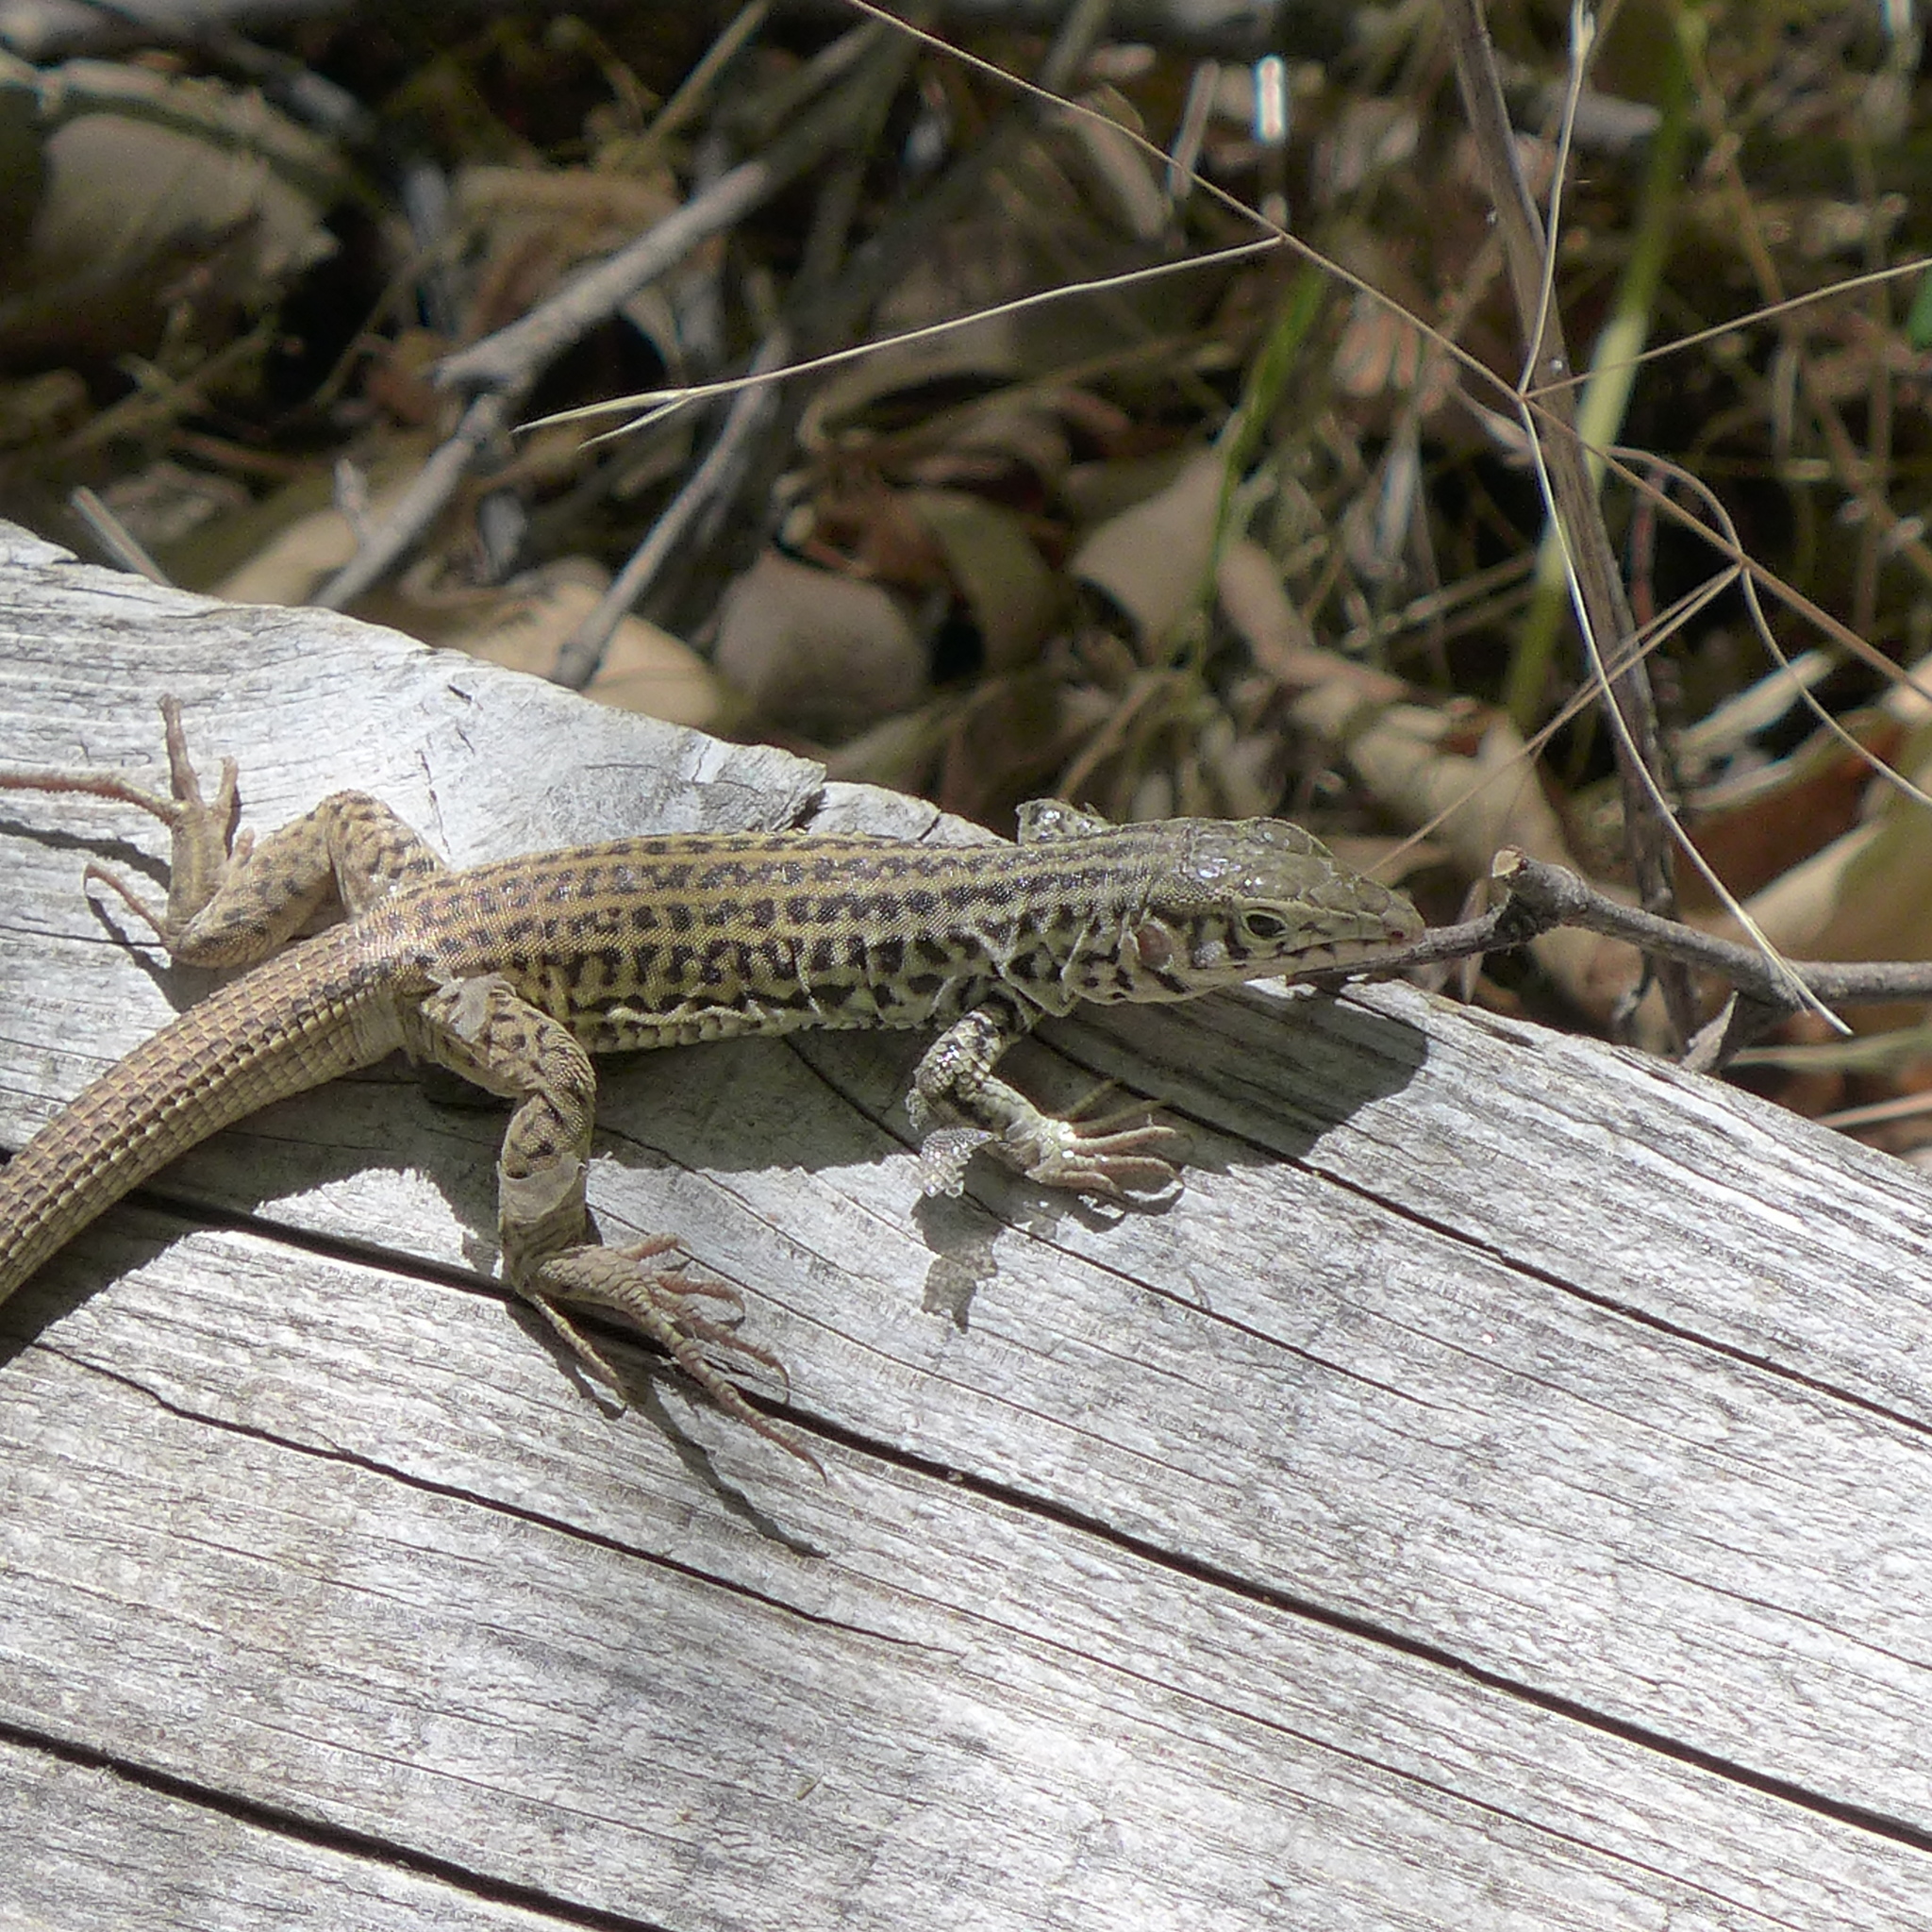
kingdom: Animalia
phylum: Chordata
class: Squamata
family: Teiidae
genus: Aspidoscelis
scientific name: Aspidoscelis tigris
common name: Tiger whiptail
